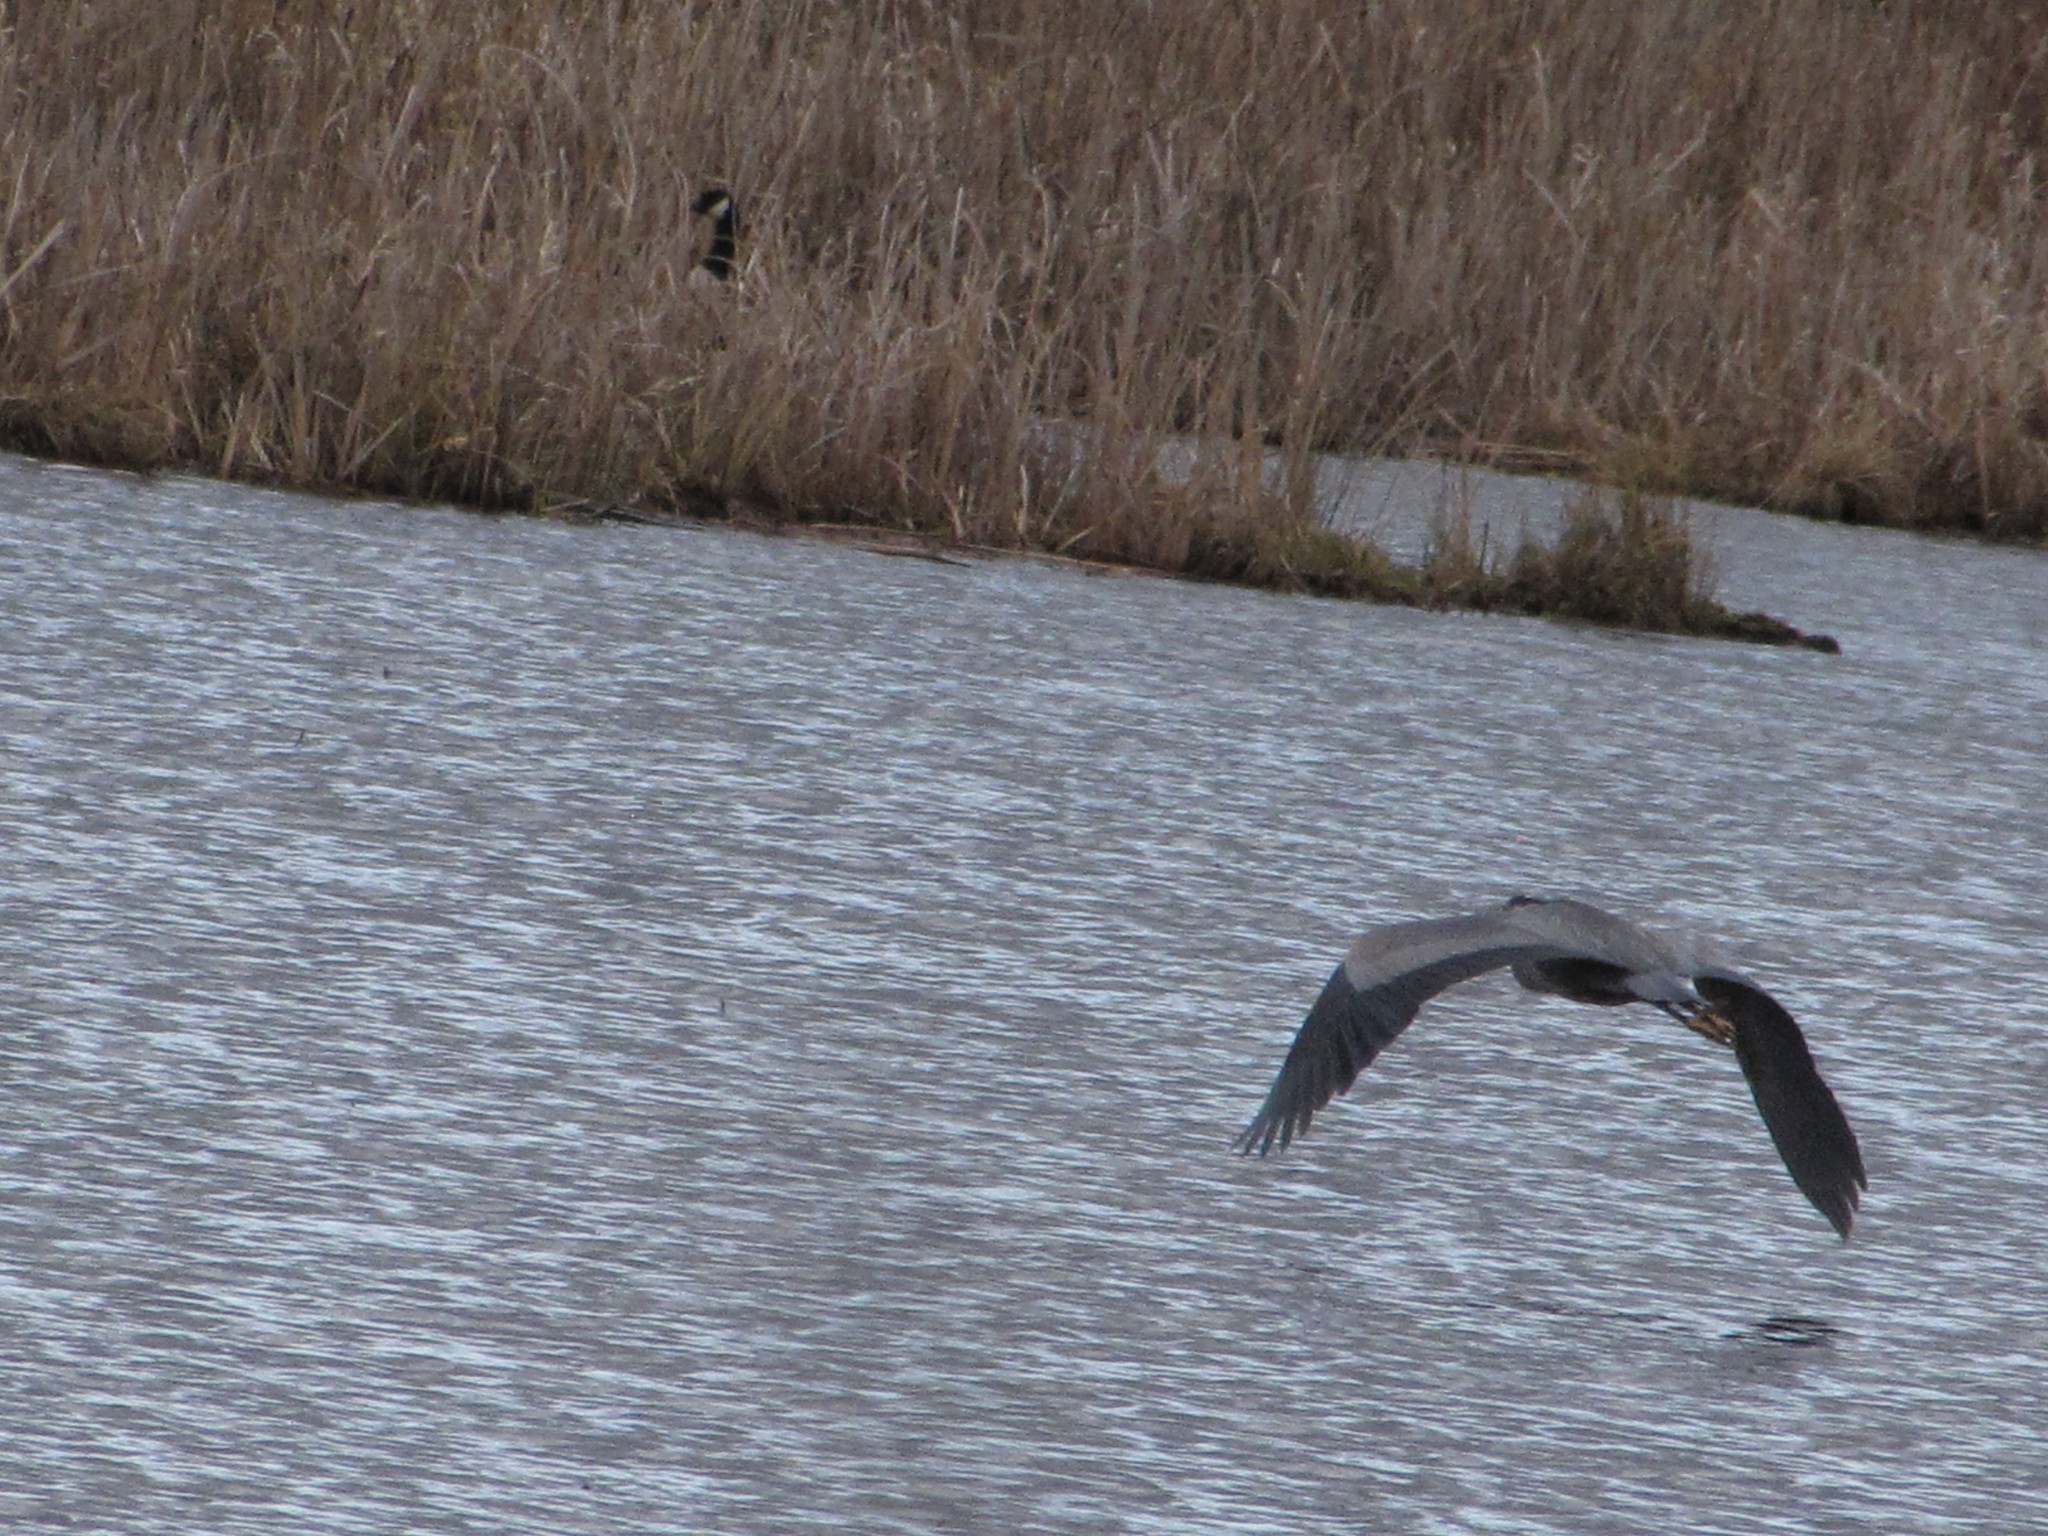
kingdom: Animalia
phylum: Chordata
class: Aves
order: Pelecaniformes
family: Ardeidae
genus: Ardea
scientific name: Ardea herodias
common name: Great blue heron
